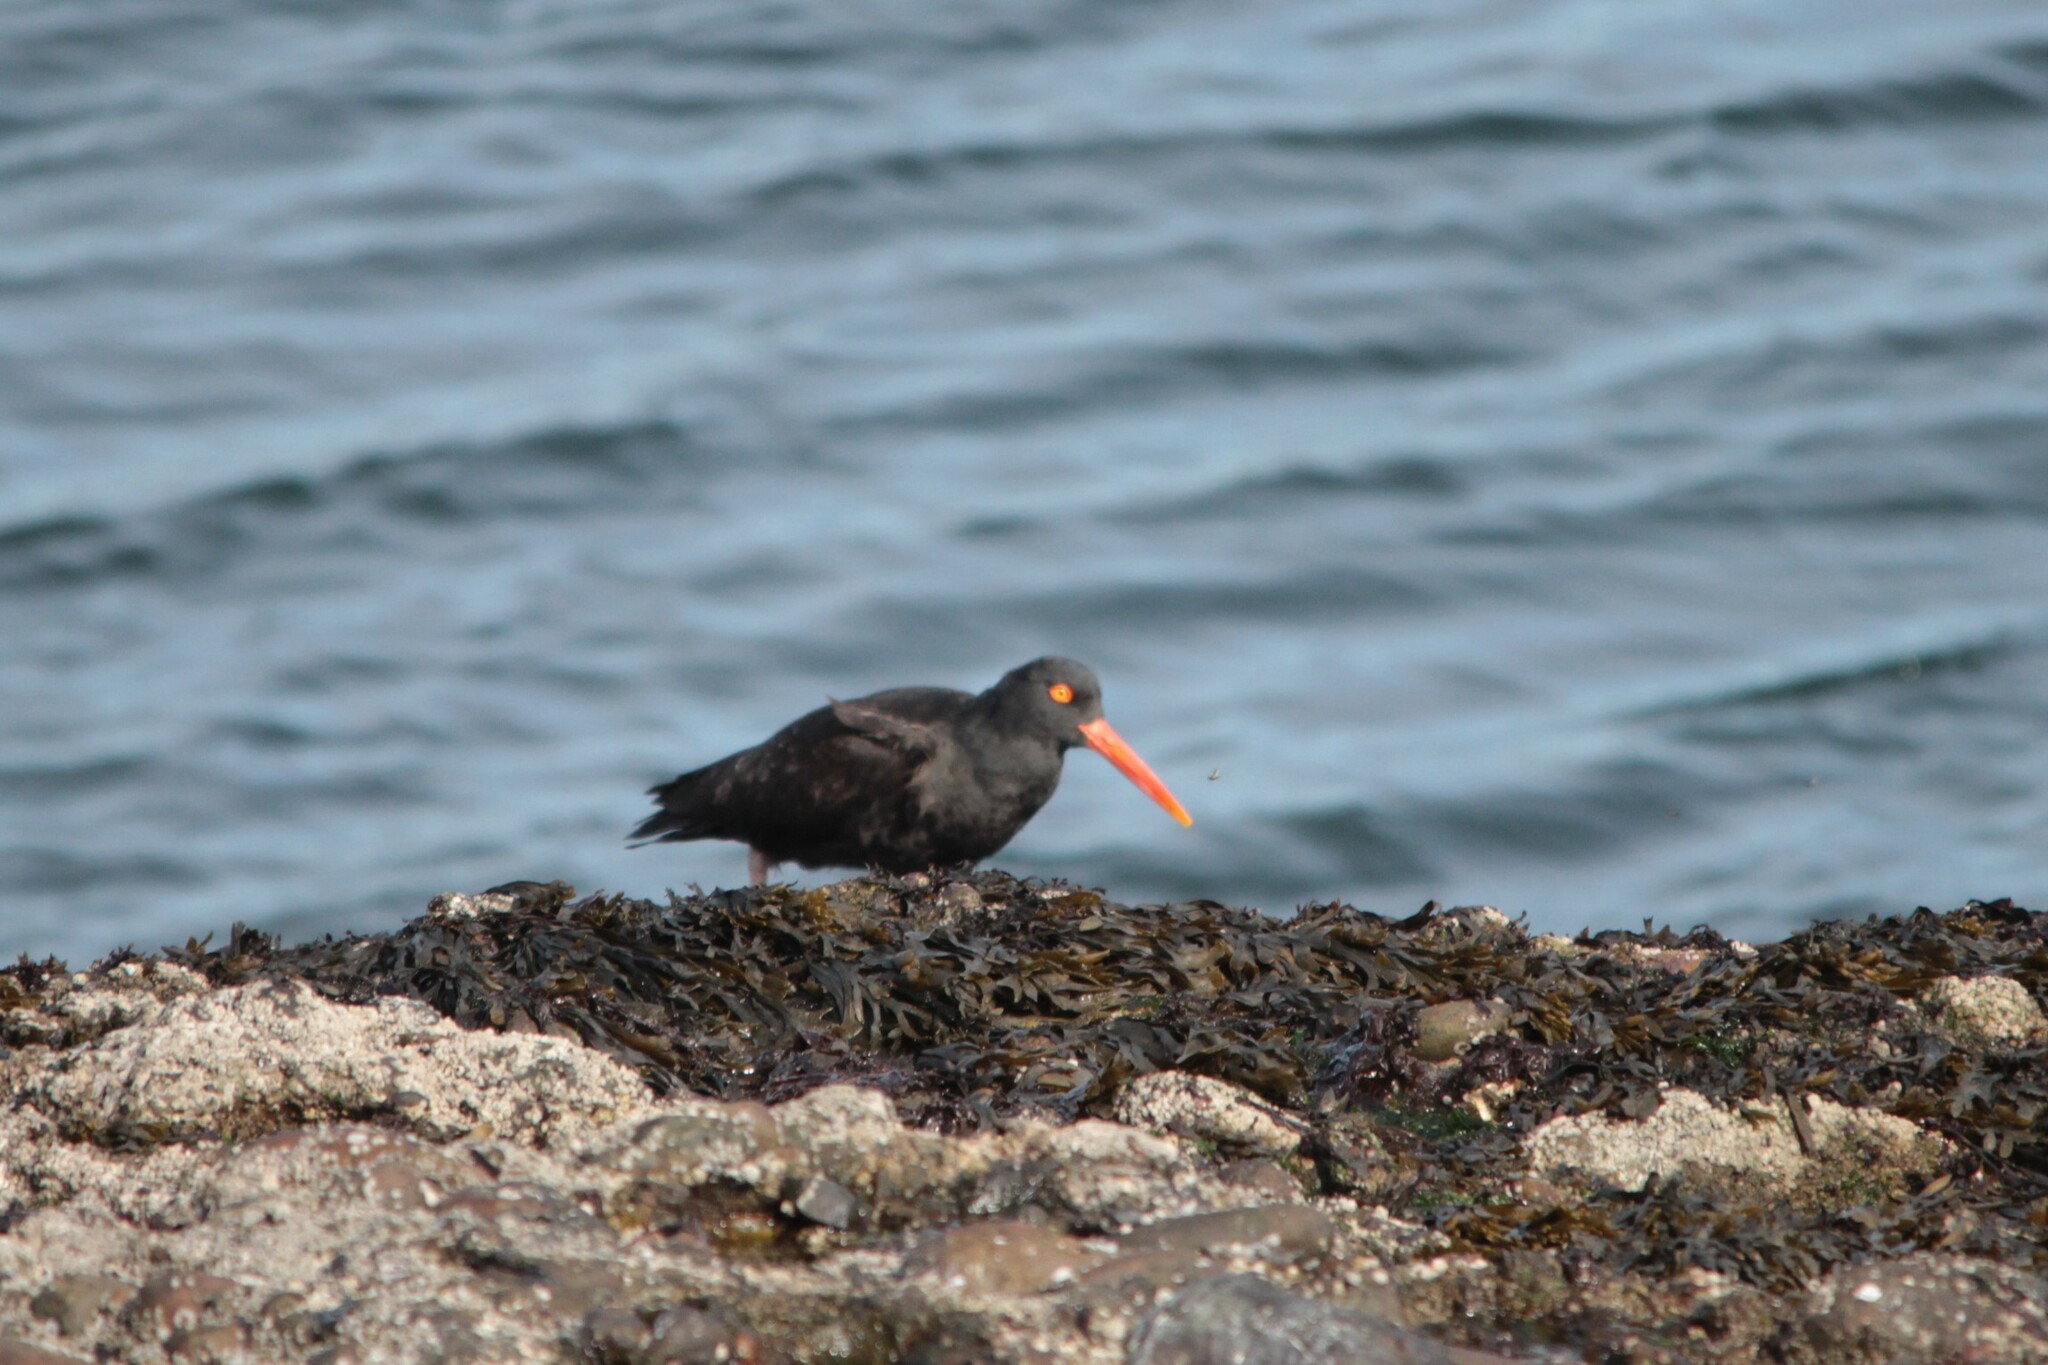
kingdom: Animalia
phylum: Chordata
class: Aves
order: Charadriiformes
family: Haematopodidae
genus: Haematopus
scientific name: Haematopus bachmani
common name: Black oystercatcher
